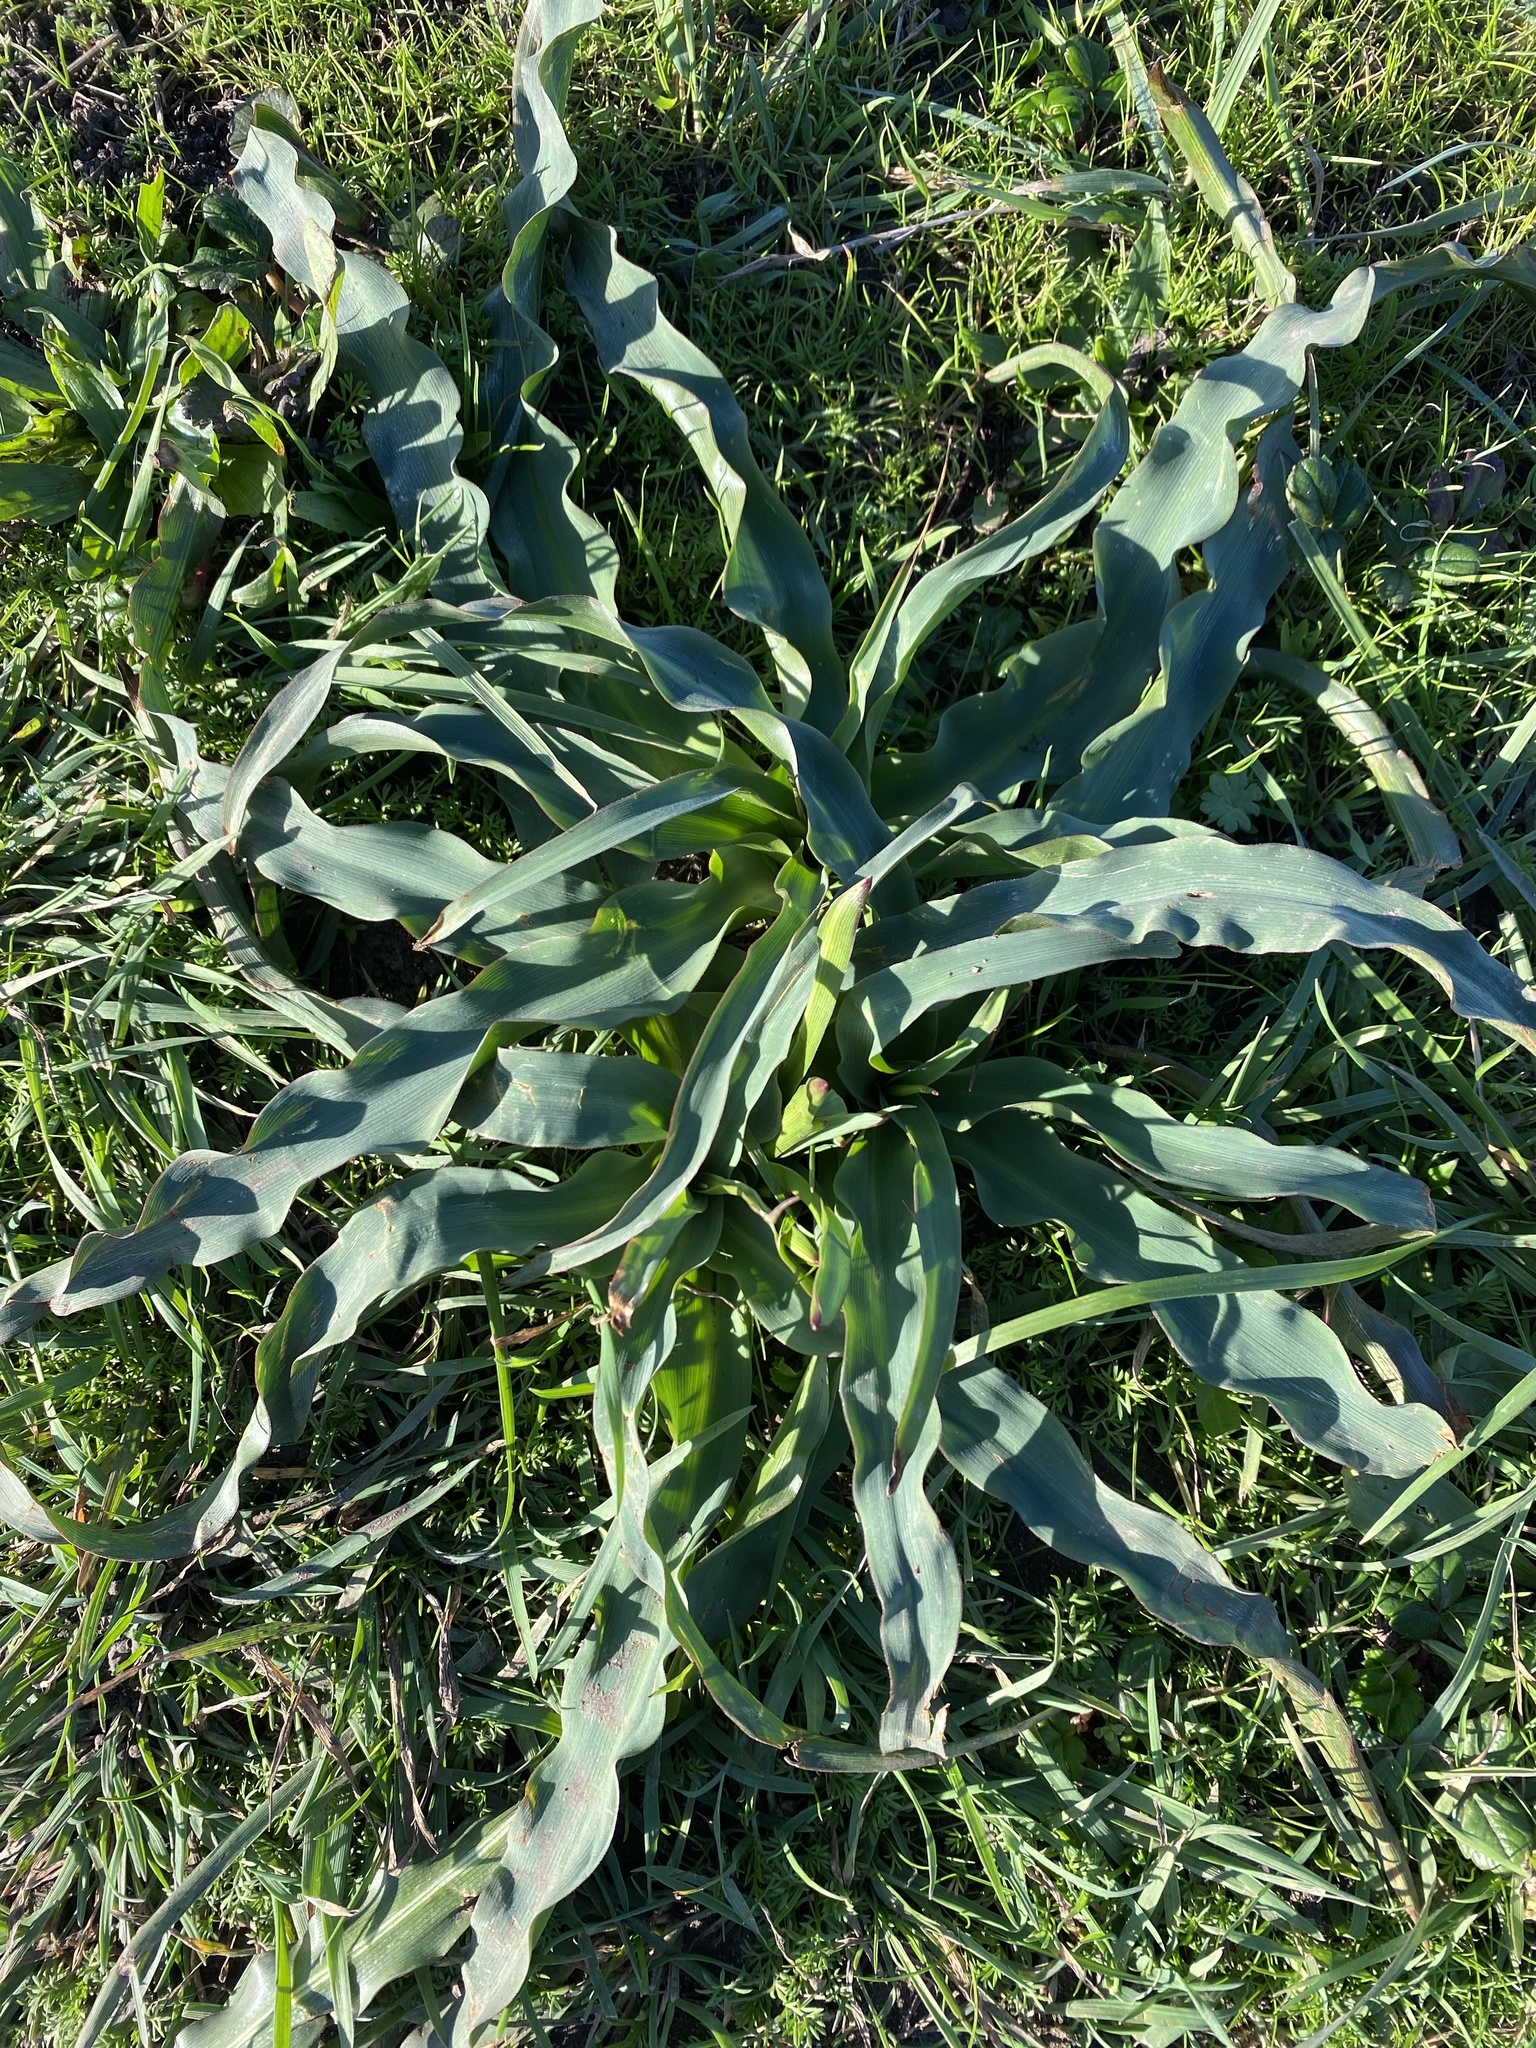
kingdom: Plantae
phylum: Tracheophyta
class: Liliopsida
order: Asparagales
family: Asparagaceae
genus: Chlorogalum
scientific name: Chlorogalum pomeridianum
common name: Amole
